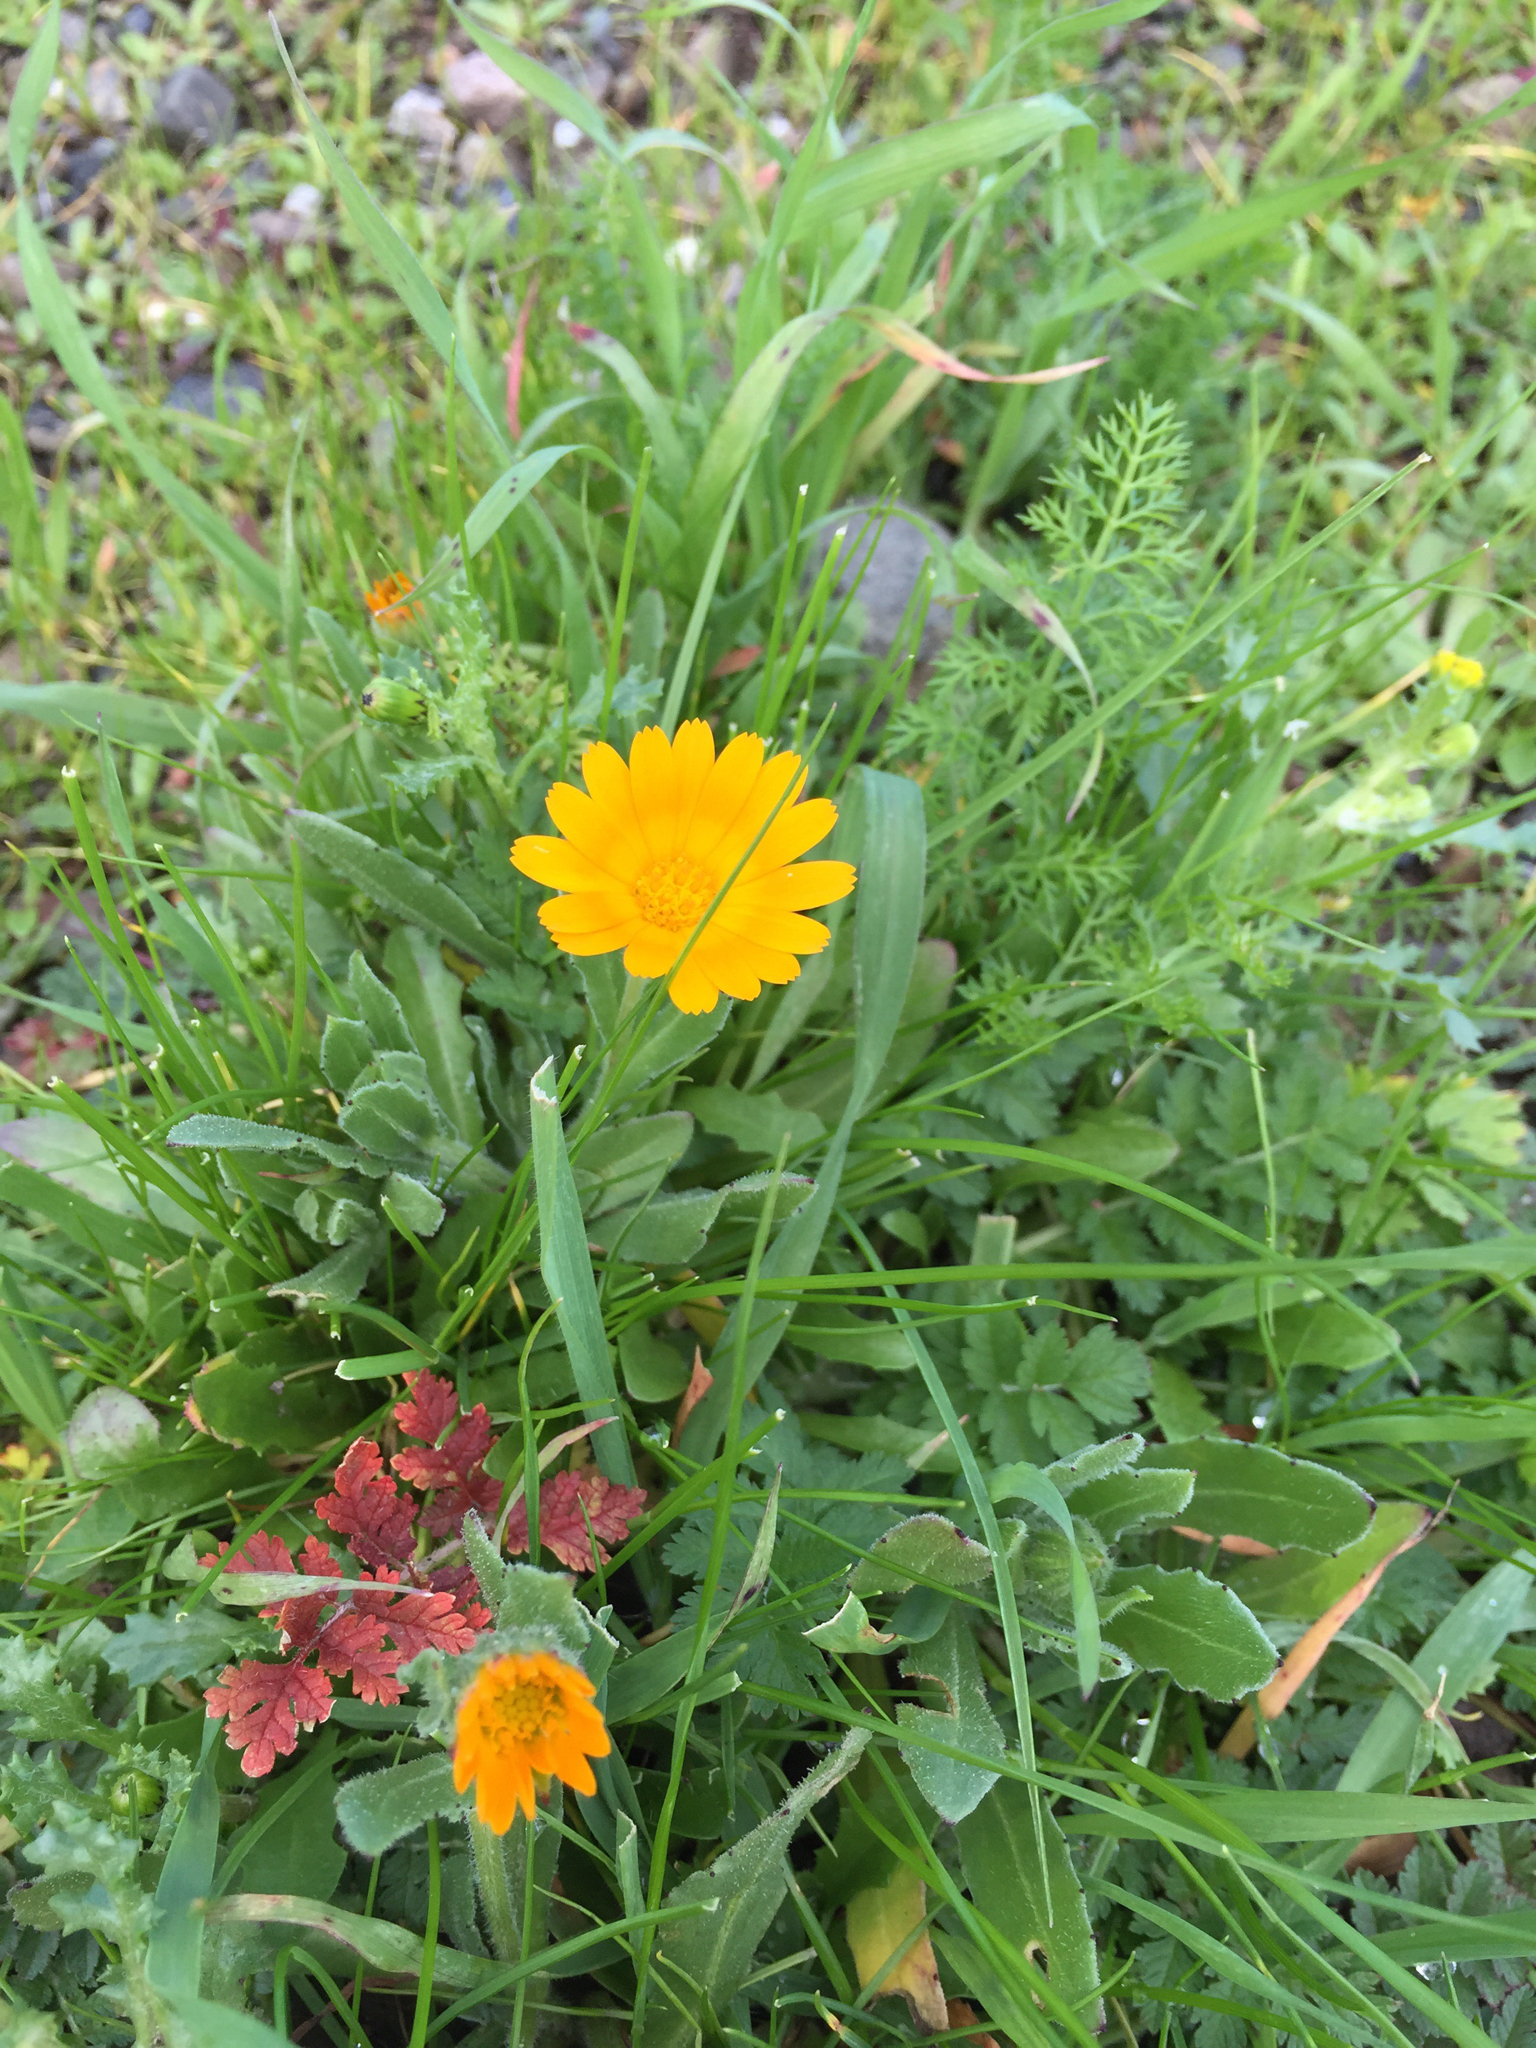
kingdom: Plantae
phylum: Tracheophyta
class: Magnoliopsida
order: Asterales
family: Asteraceae
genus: Calendula
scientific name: Calendula arvensis
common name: Field marigold
